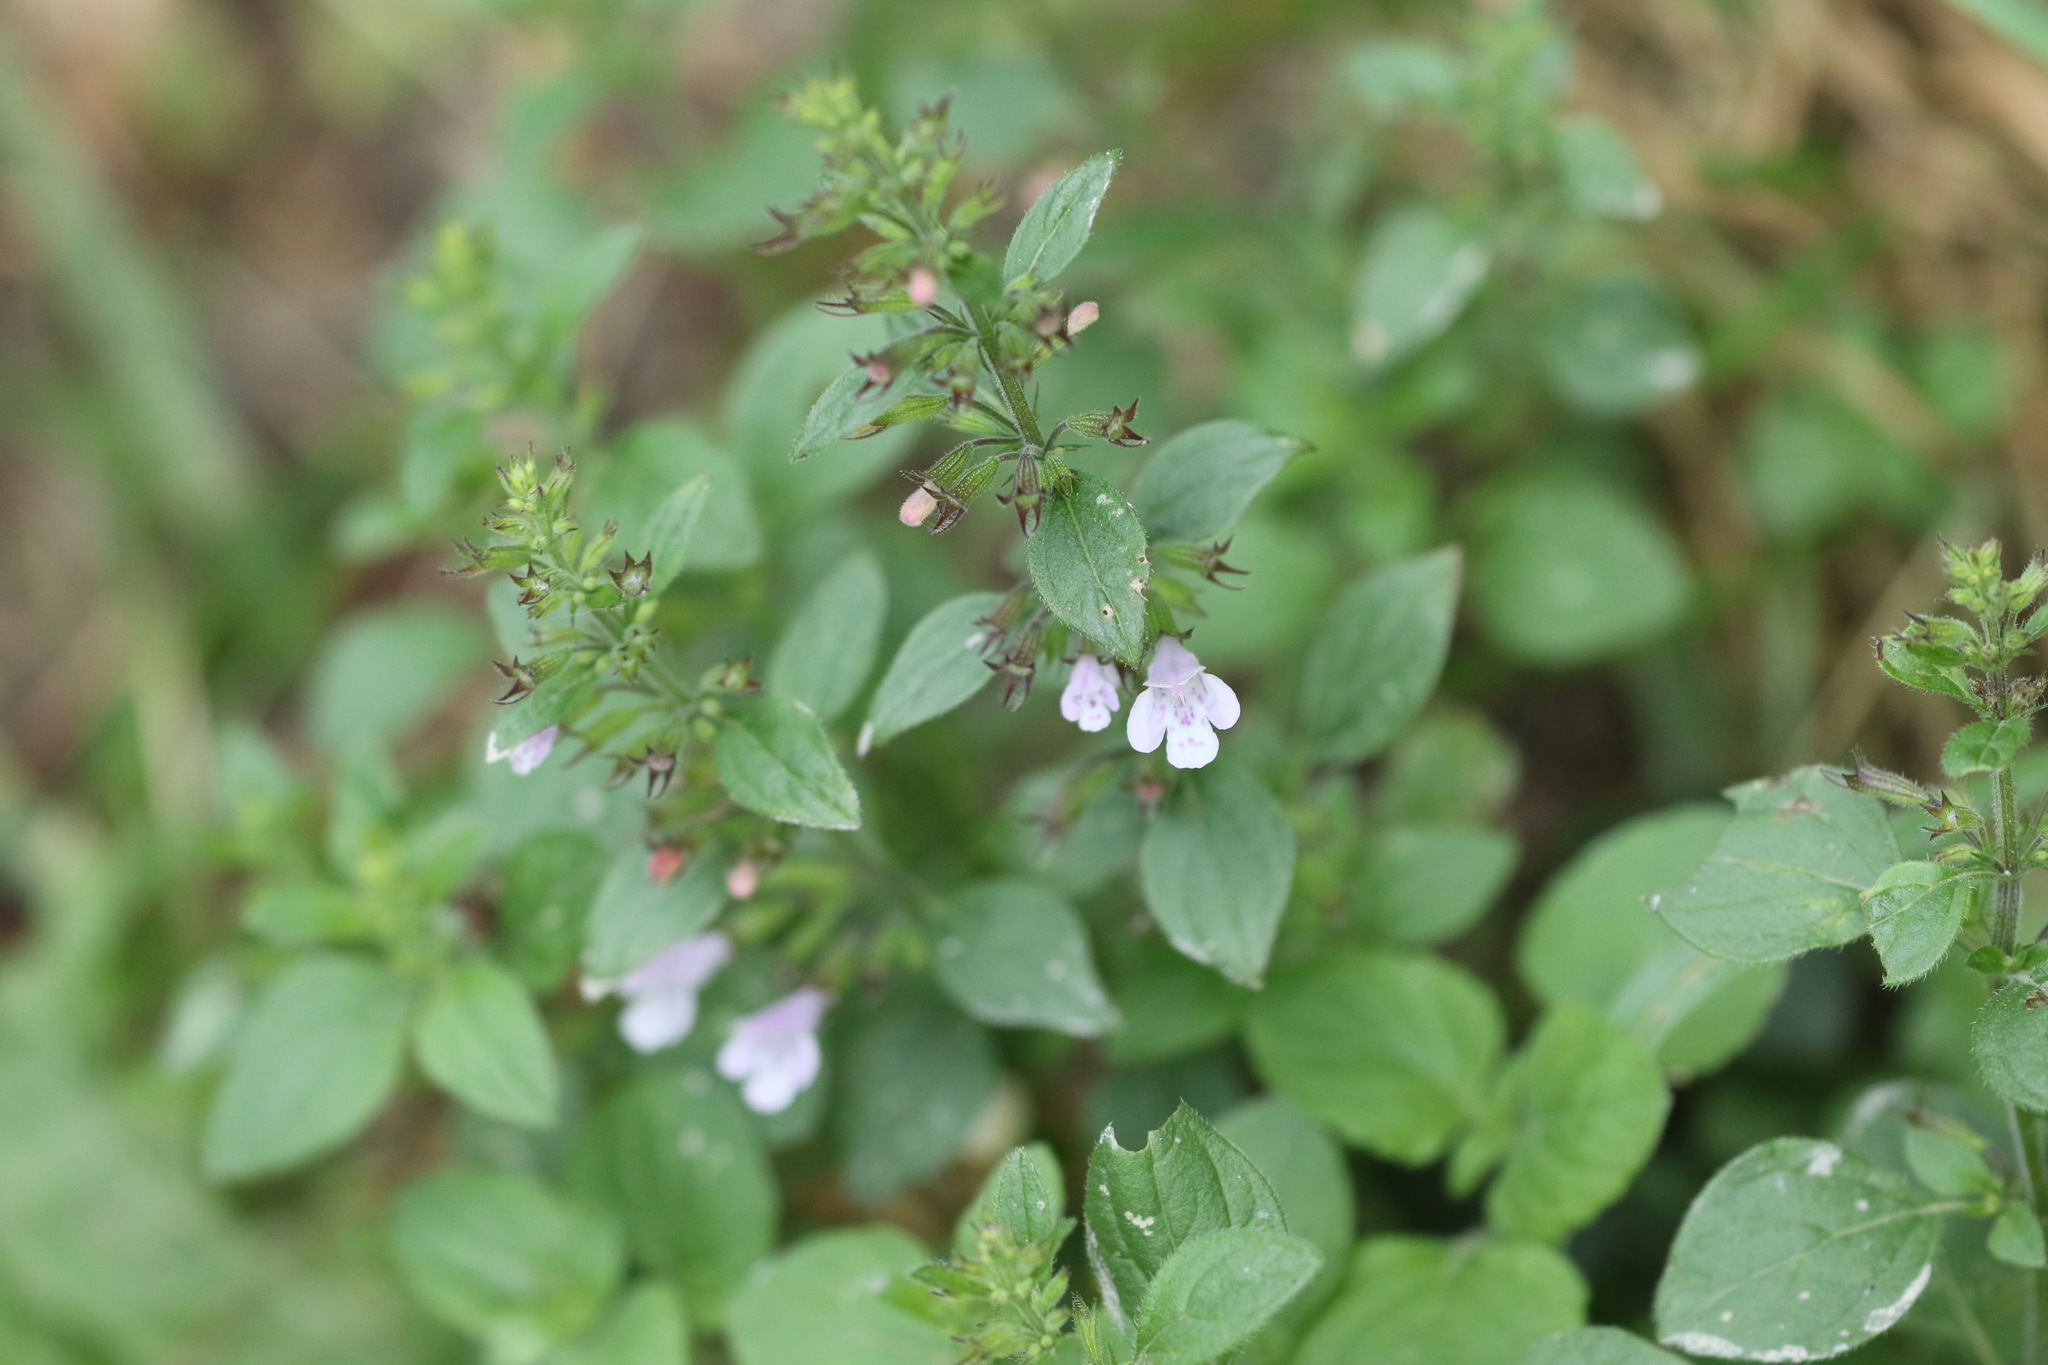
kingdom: Plantae
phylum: Tracheophyta
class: Magnoliopsida
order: Lamiales
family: Lamiaceae
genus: Clinopodium
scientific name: Clinopodium menthifolium
